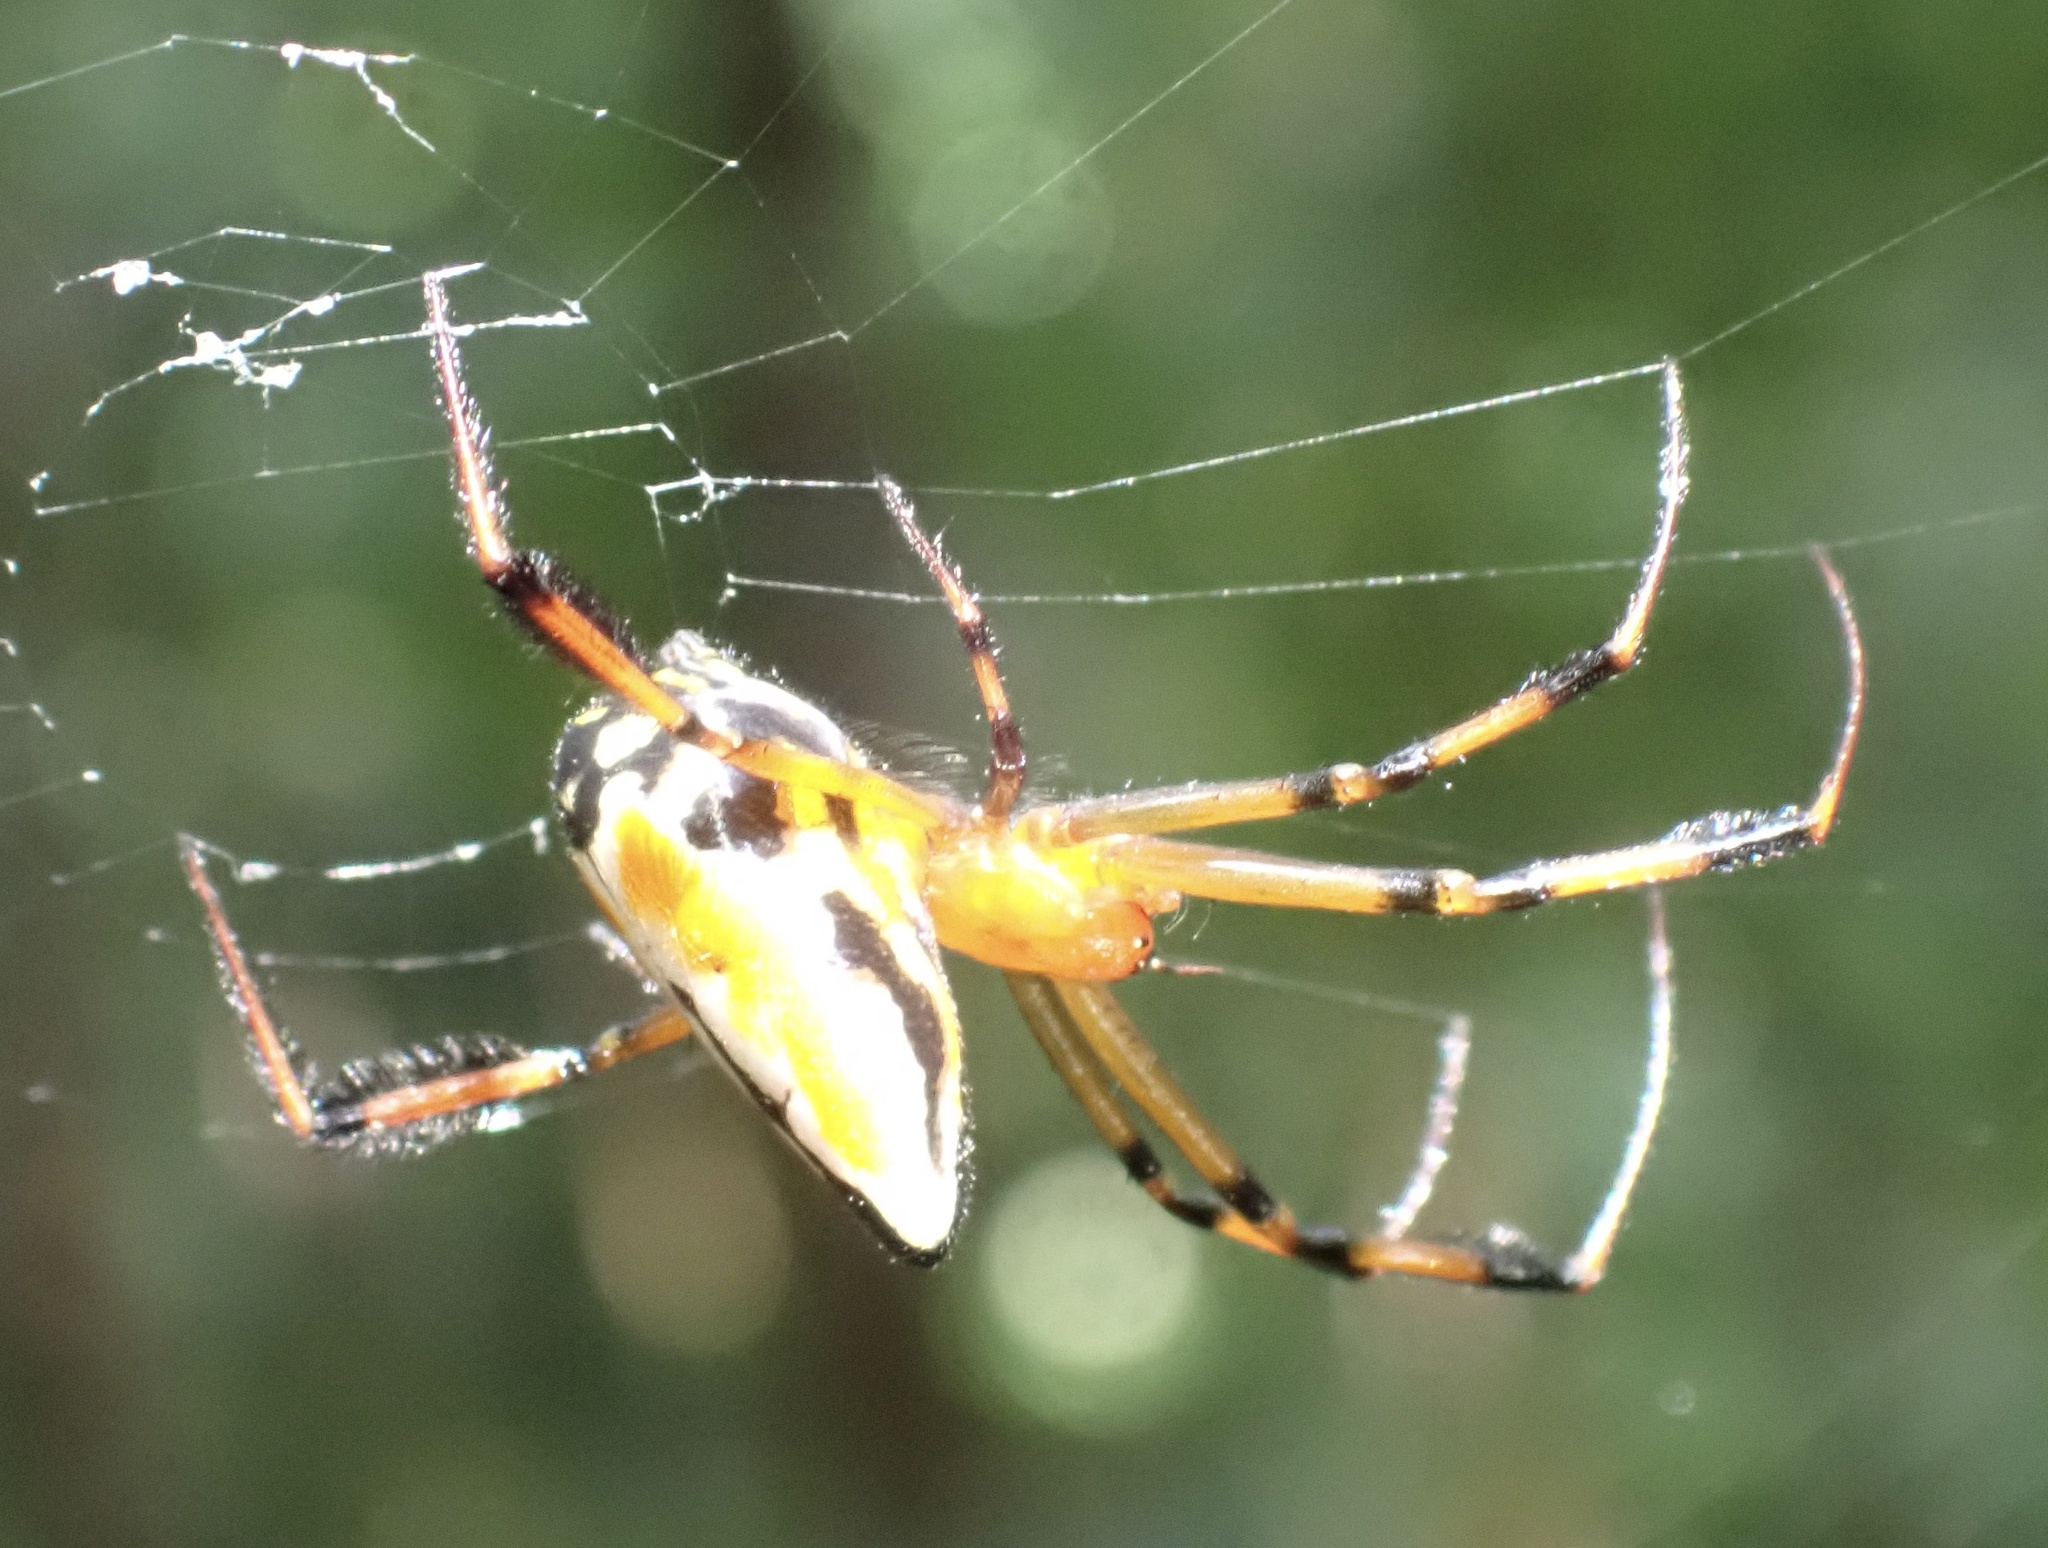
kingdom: Animalia
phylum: Arthropoda
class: Arachnida
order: Araneae
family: Tetragnathidae
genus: Leucauge
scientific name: Leucauge grata
